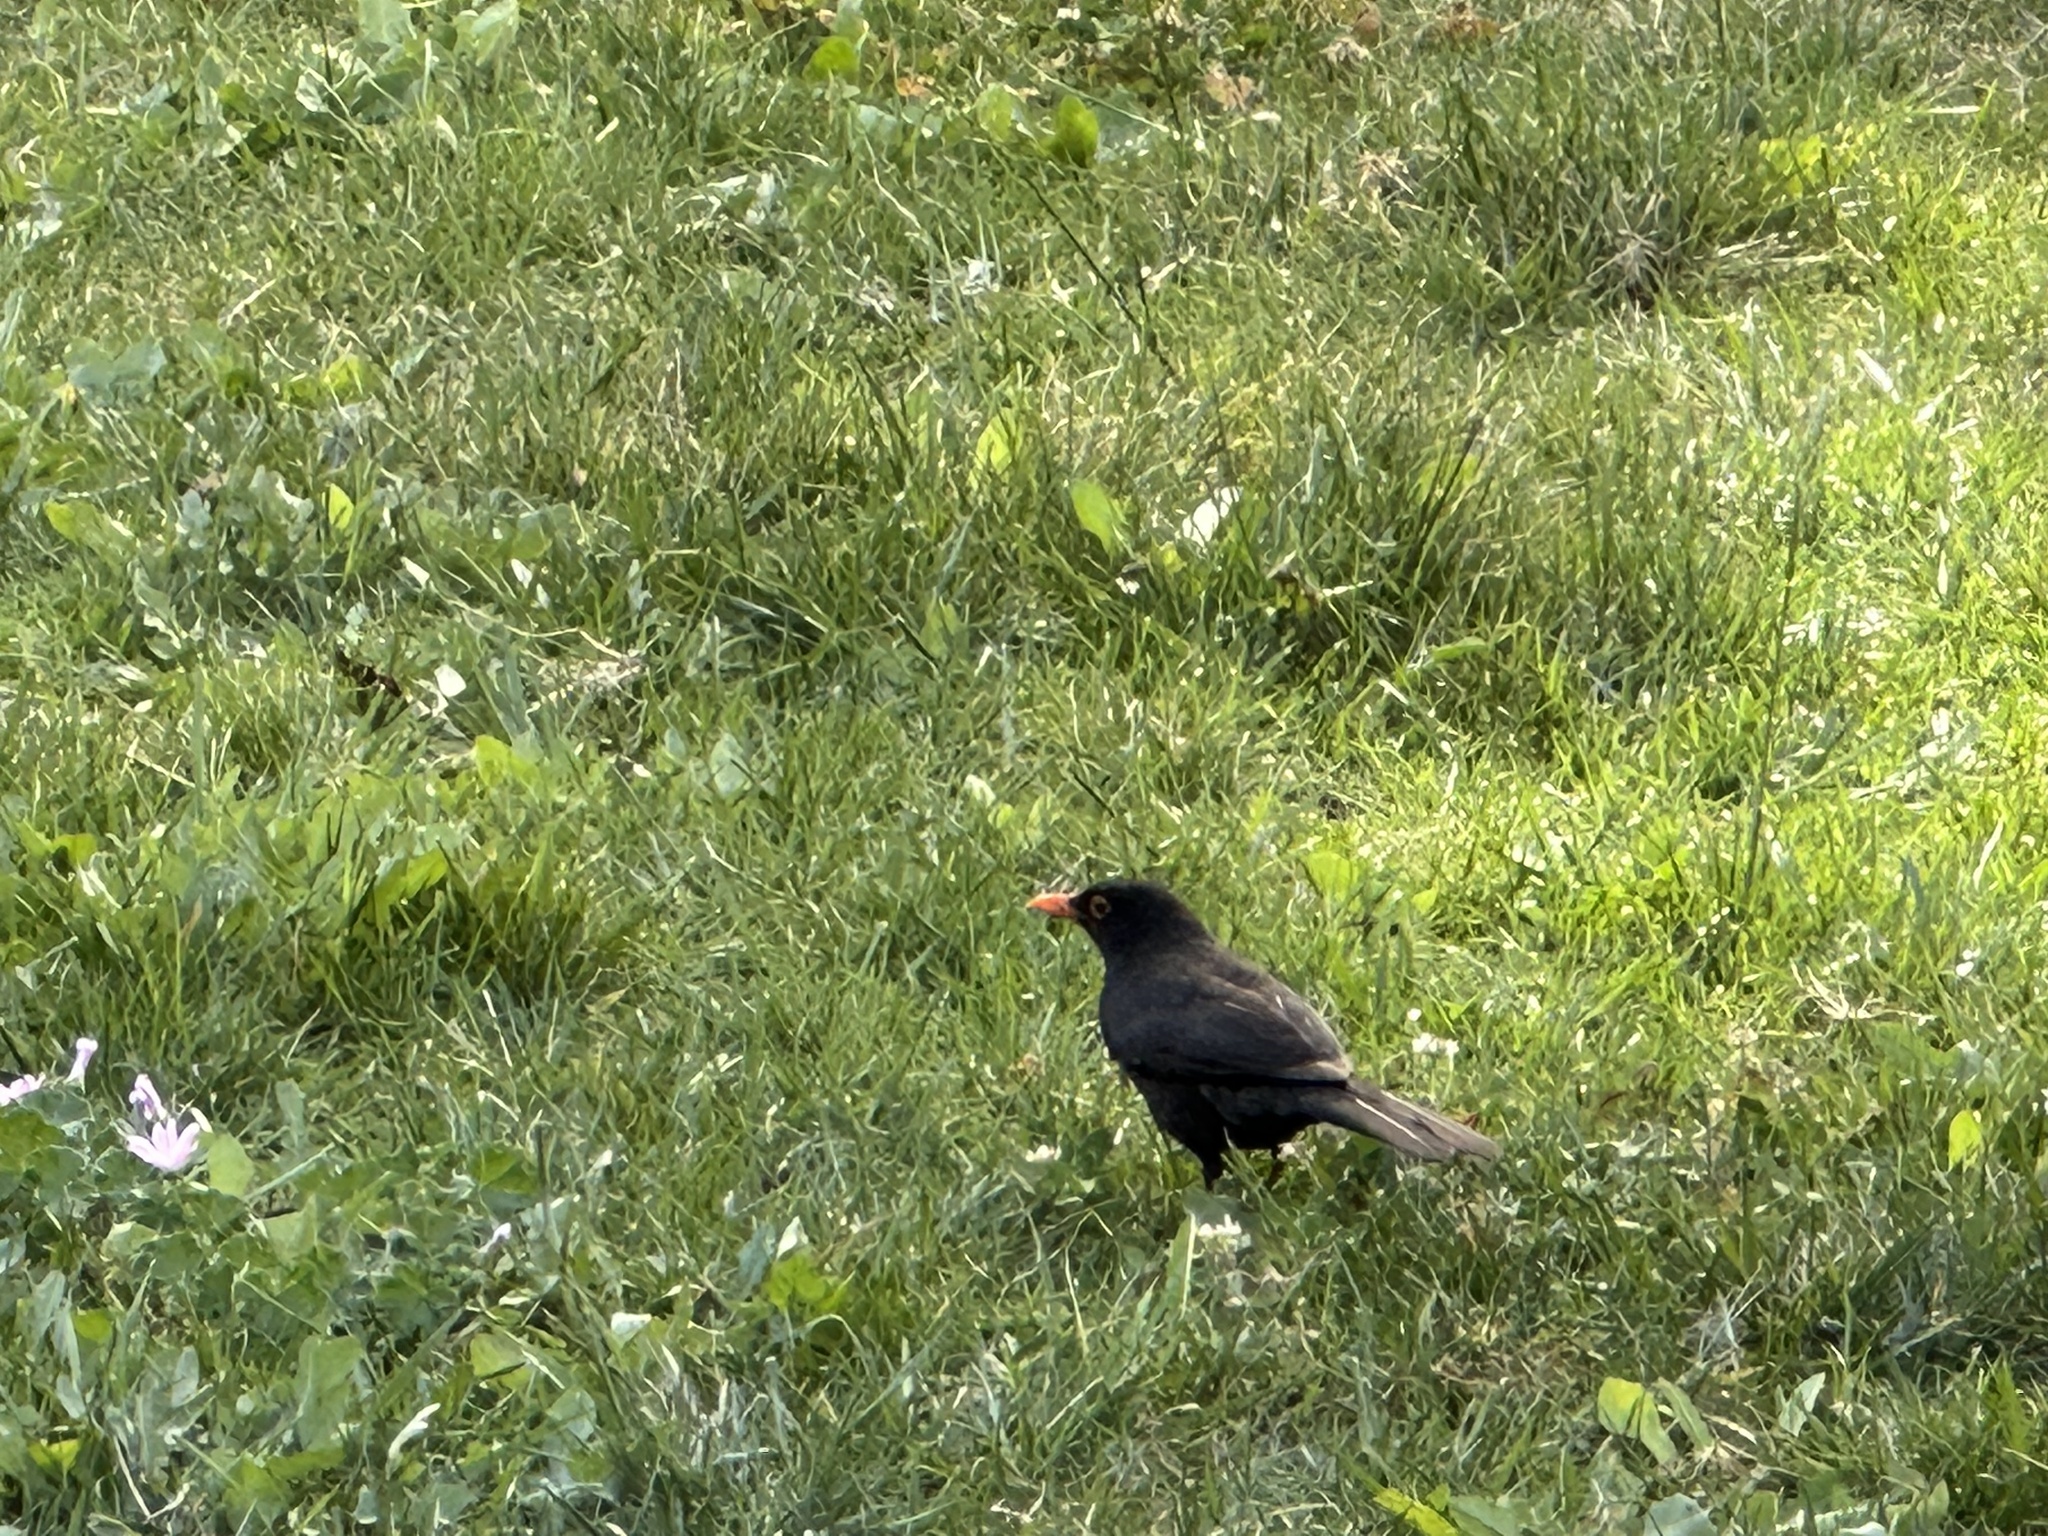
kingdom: Animalia
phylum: Chordata
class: Aves
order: Passeriformes
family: Turdidae
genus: Turdus
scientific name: Turdus merula
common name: Common blackbird
